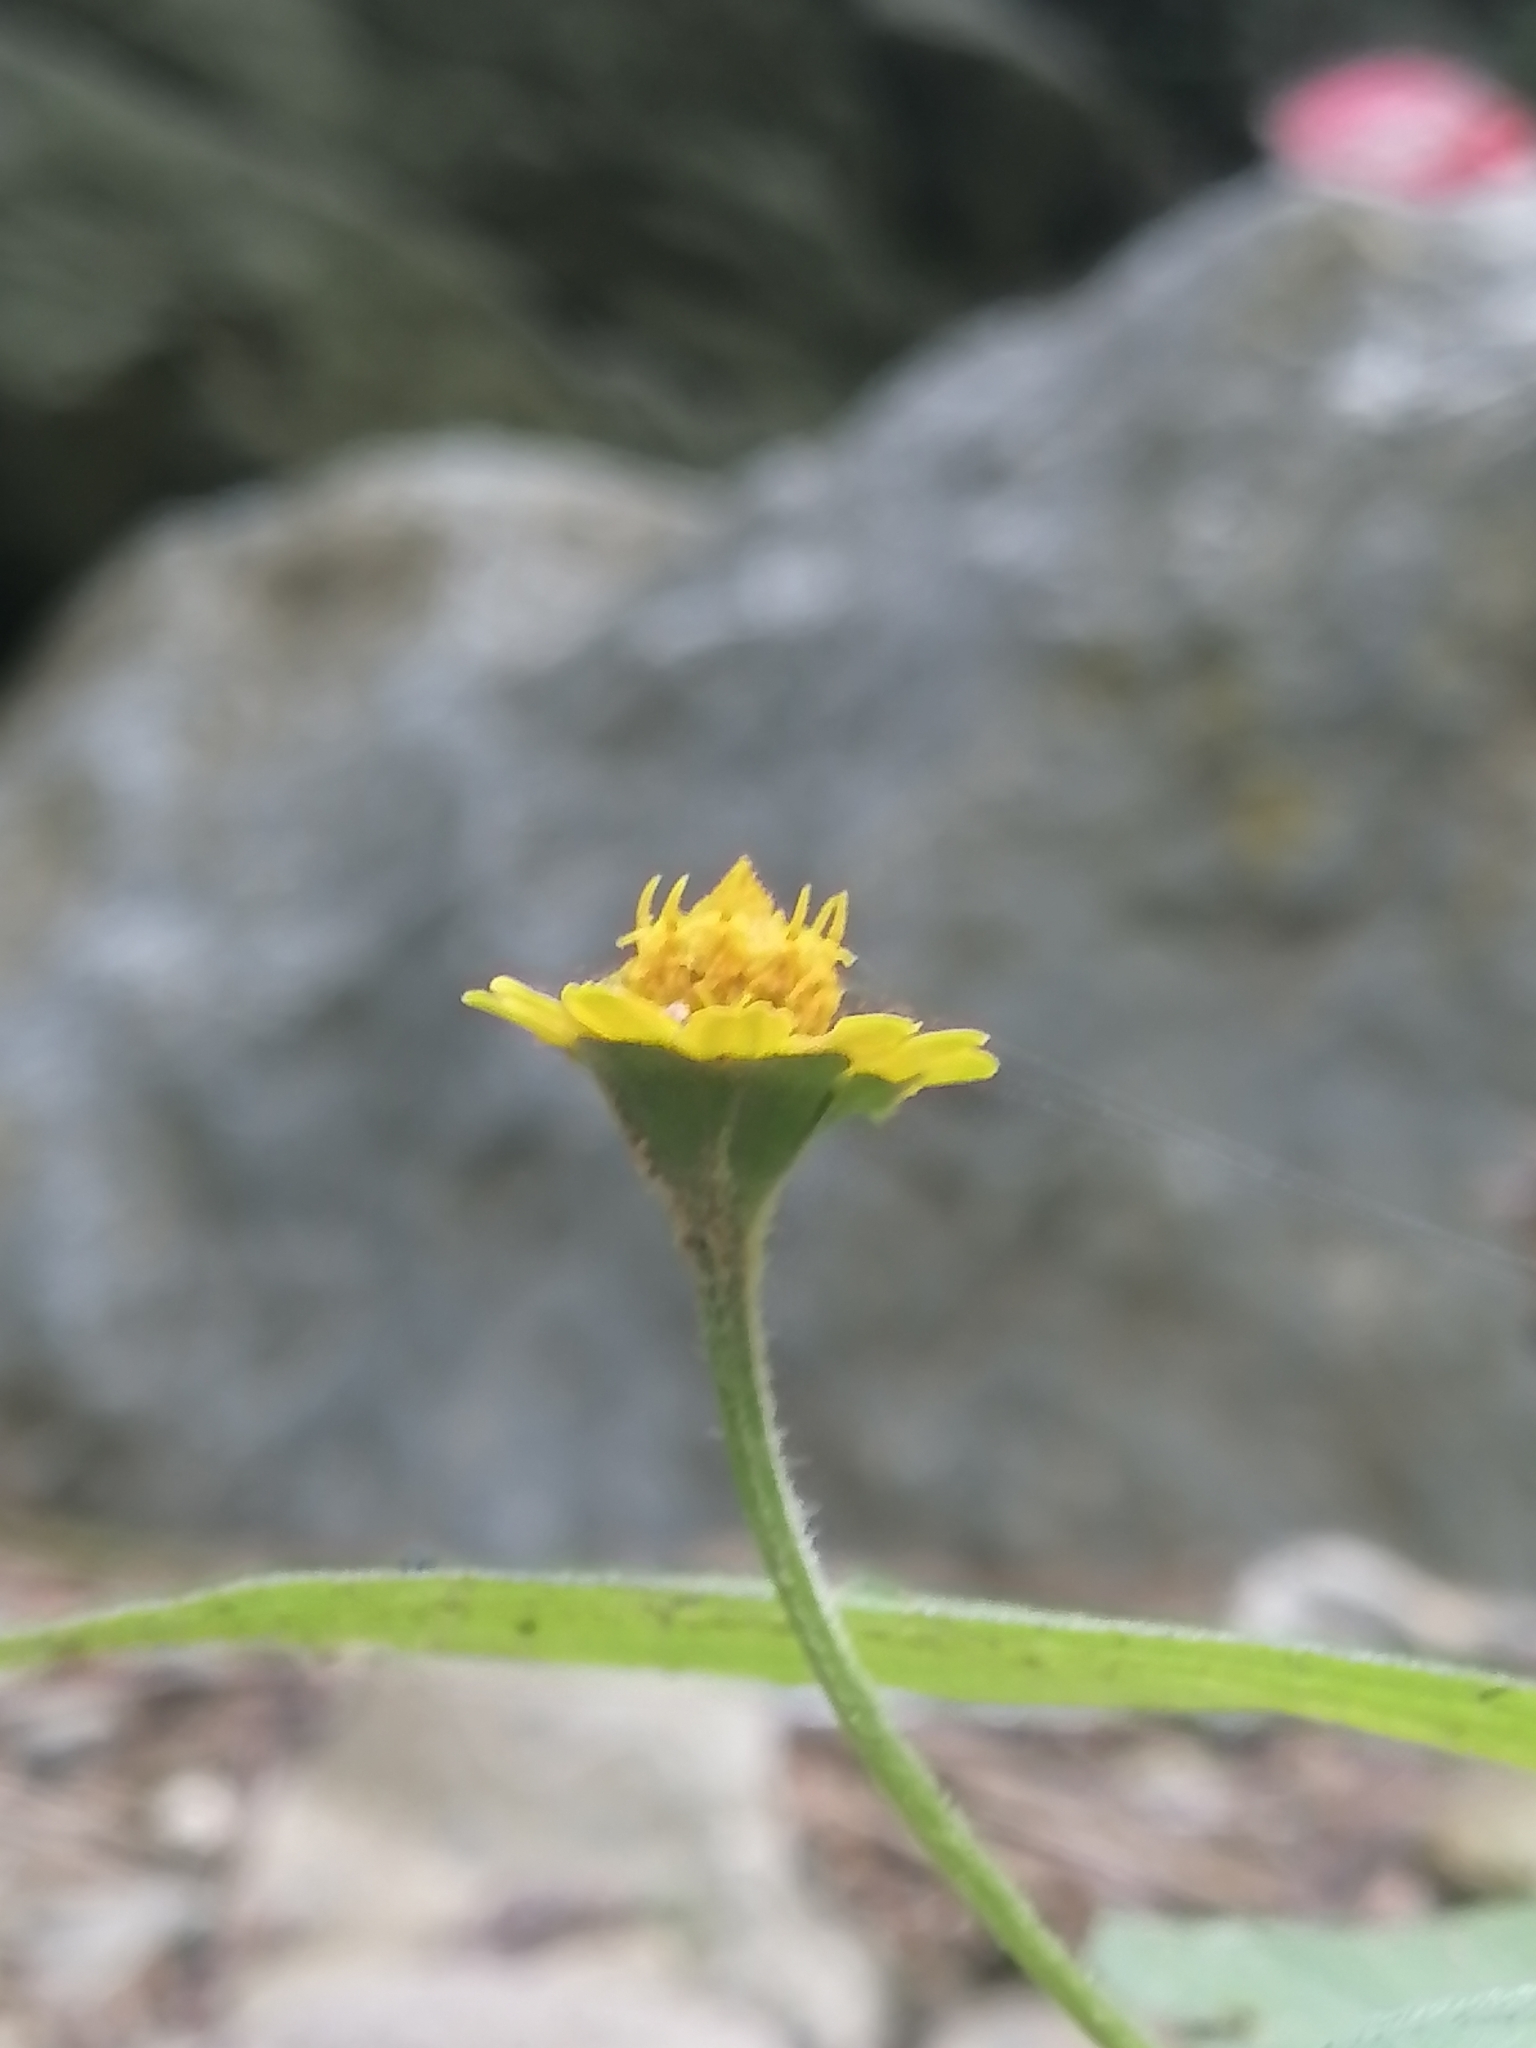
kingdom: Plantae
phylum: Tracheophyta
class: Magnoliopsida
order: Asterales
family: Asteraceae
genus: Melampodium
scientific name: Melampodium divaricatum
